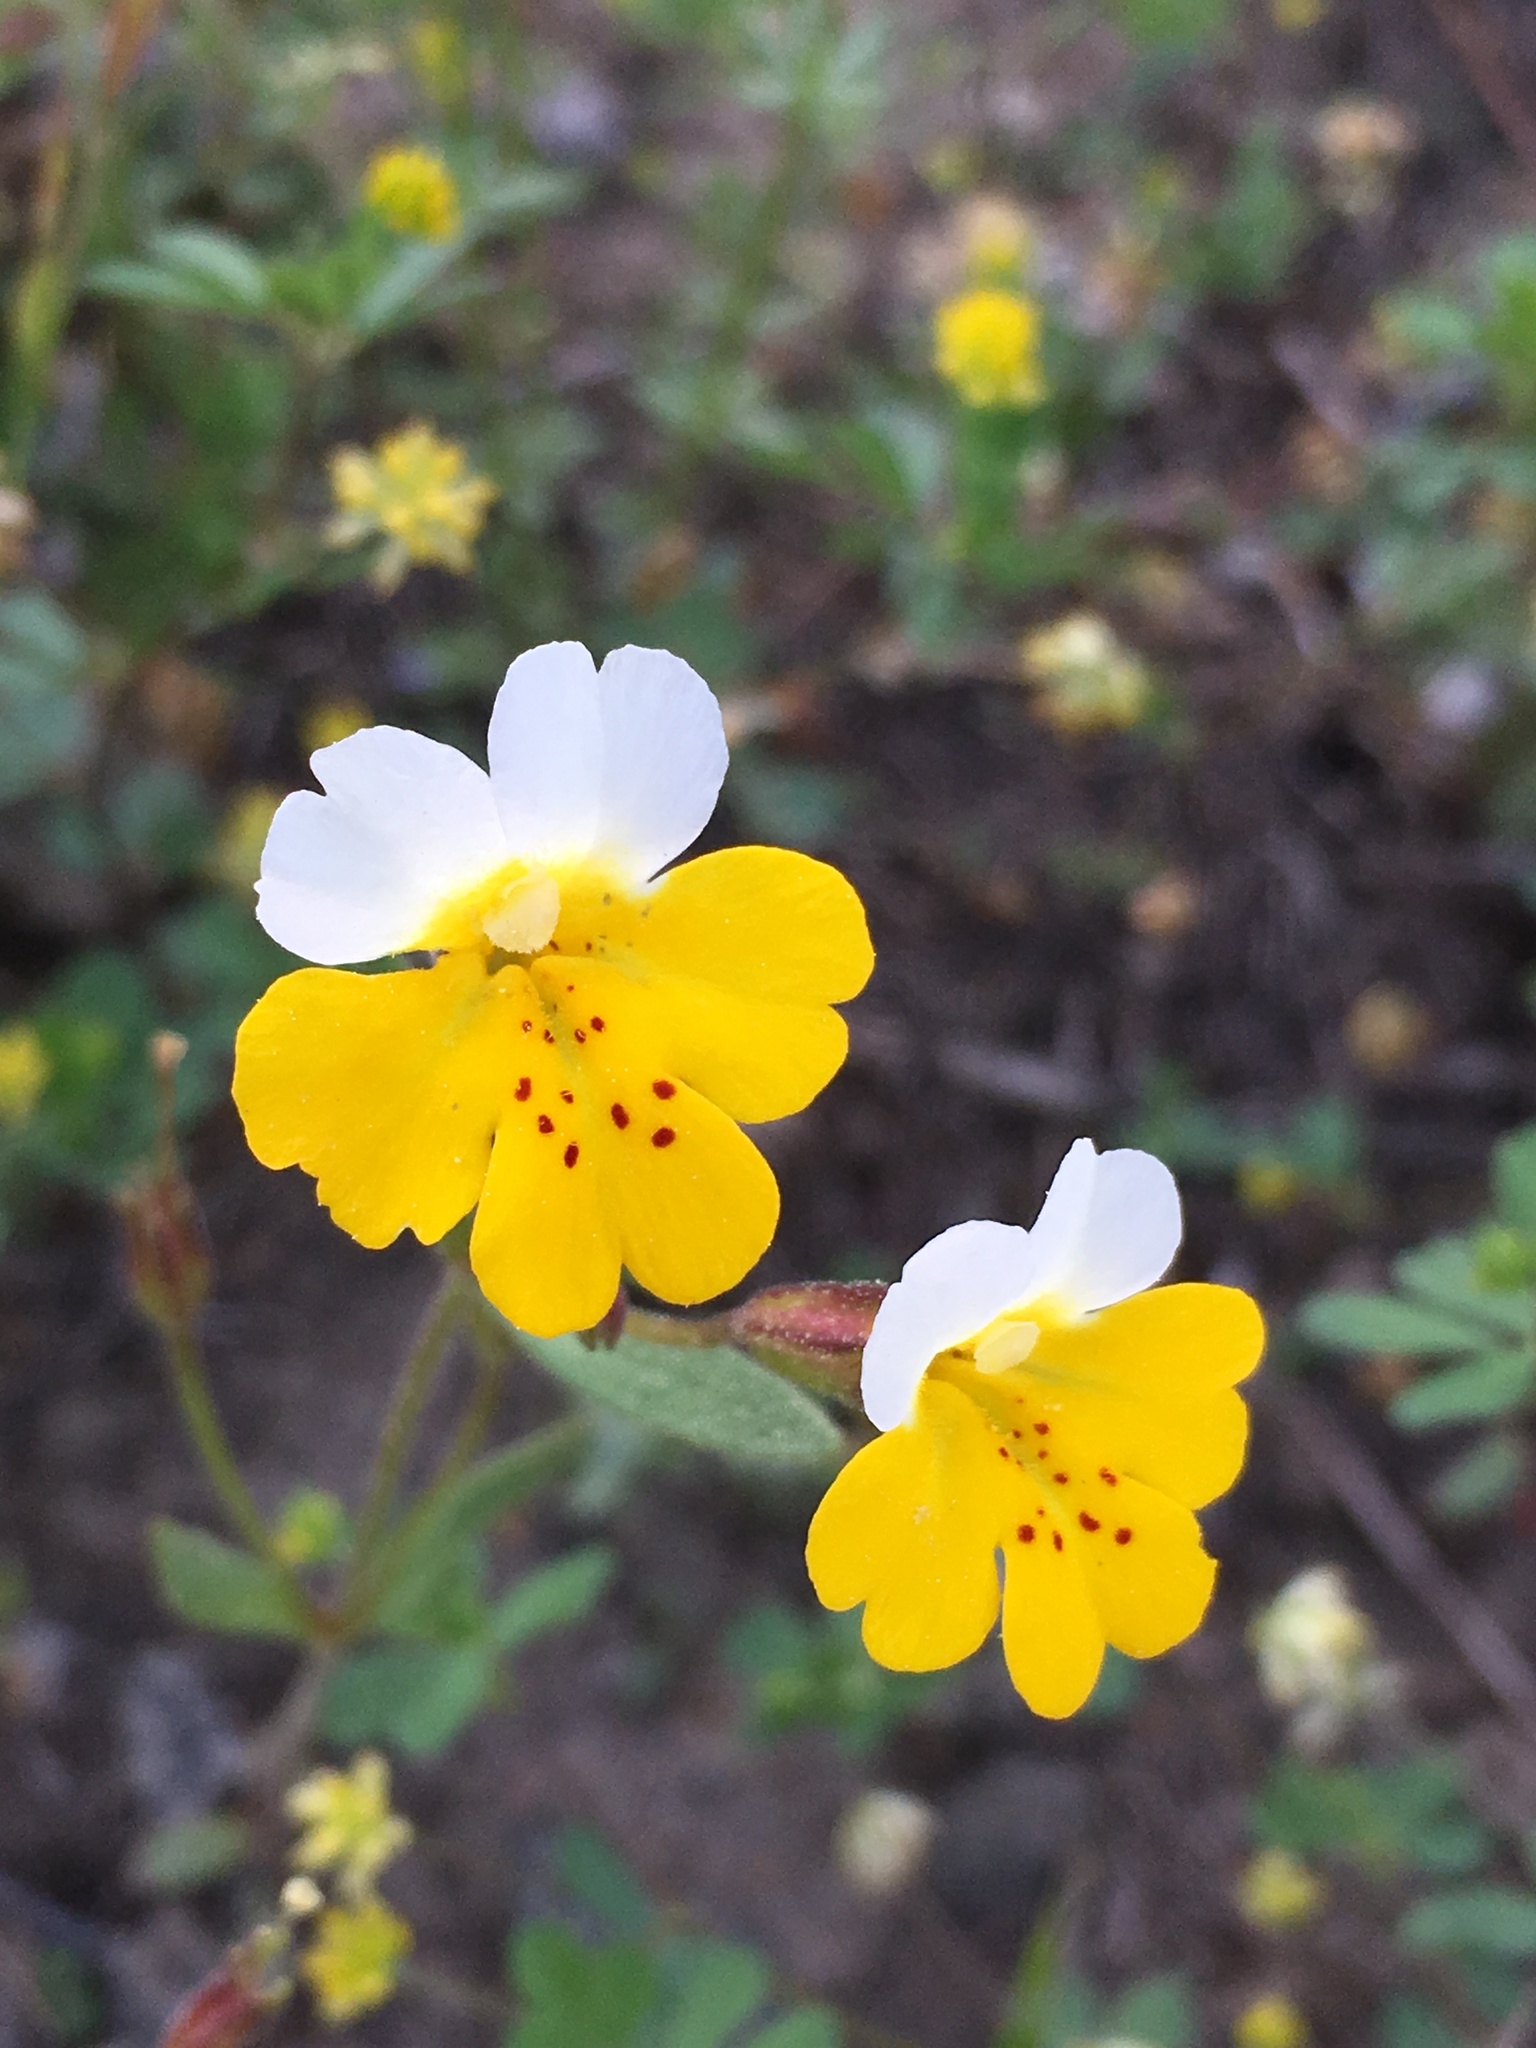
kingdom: Plantae
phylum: Tracheophyta
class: Magnoliopsida
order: Lamiales
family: Phrymaceae
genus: Erythranthe
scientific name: Erythranthe bicolor
